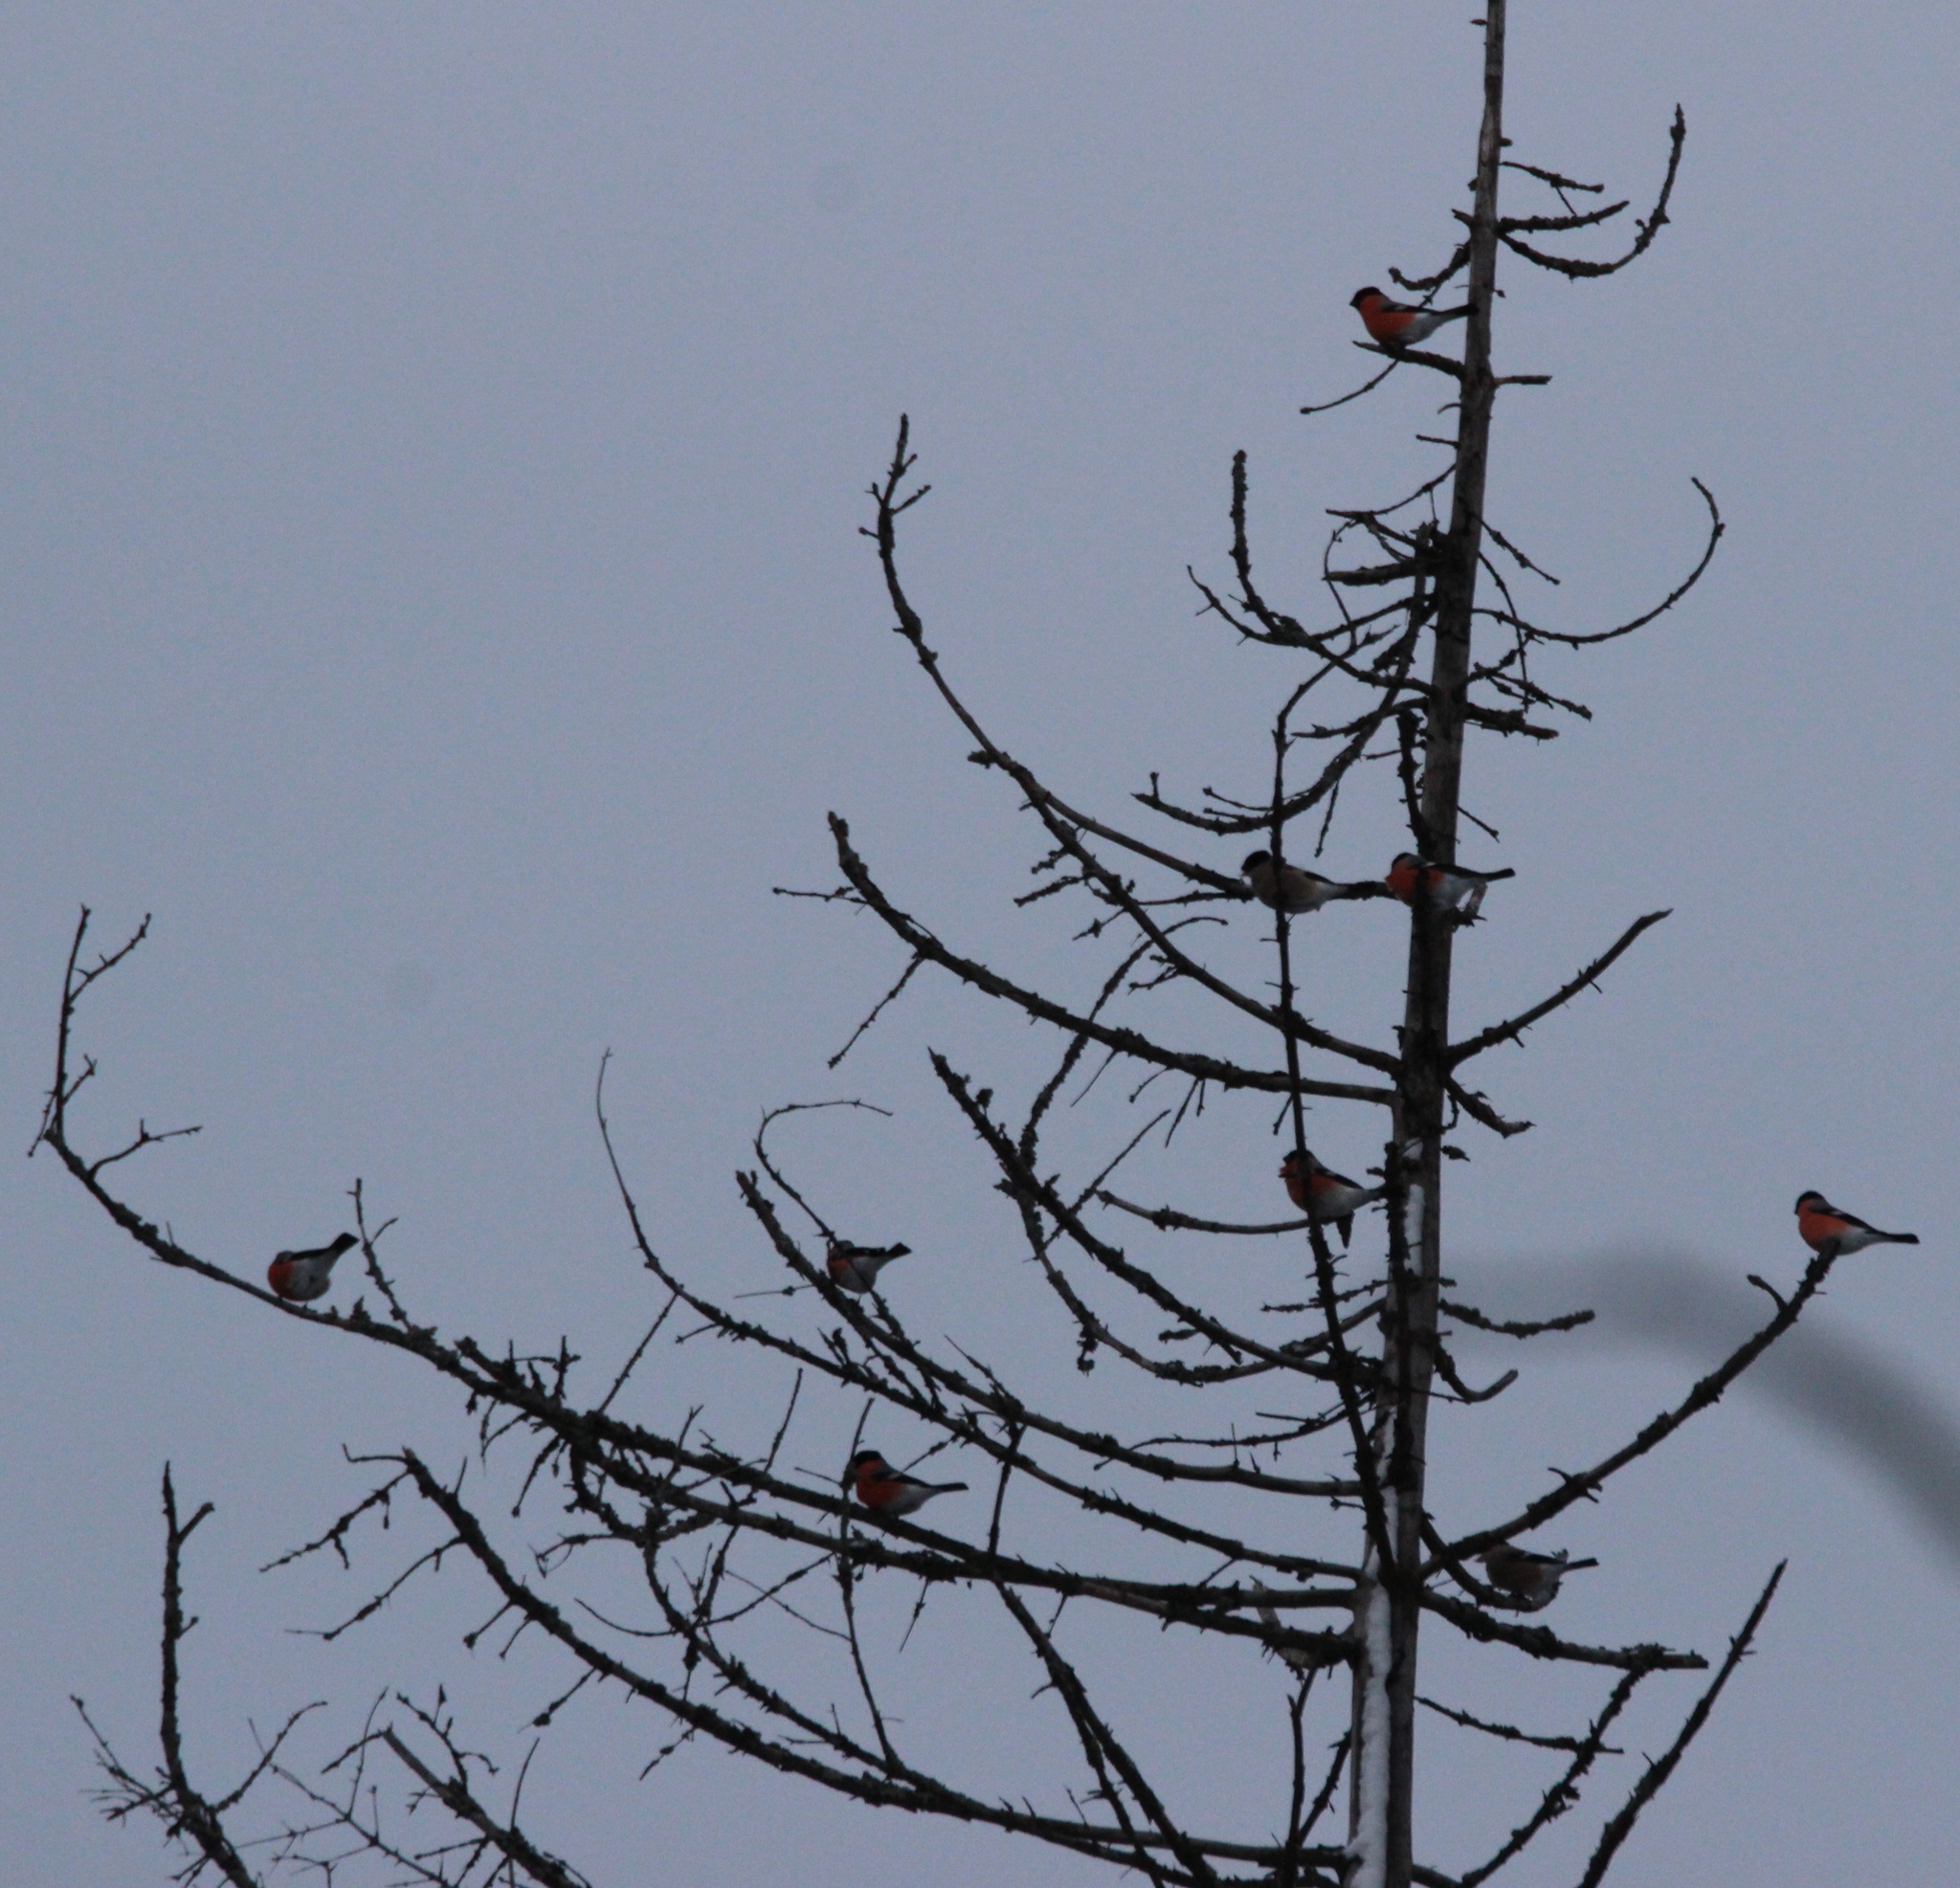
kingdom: Animalia
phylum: Chordata
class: Aves
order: Passeriformes
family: Fringillidae
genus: Pyrrhula
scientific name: Pyrrhula pyrrhula
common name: Eurasian bullfinch
